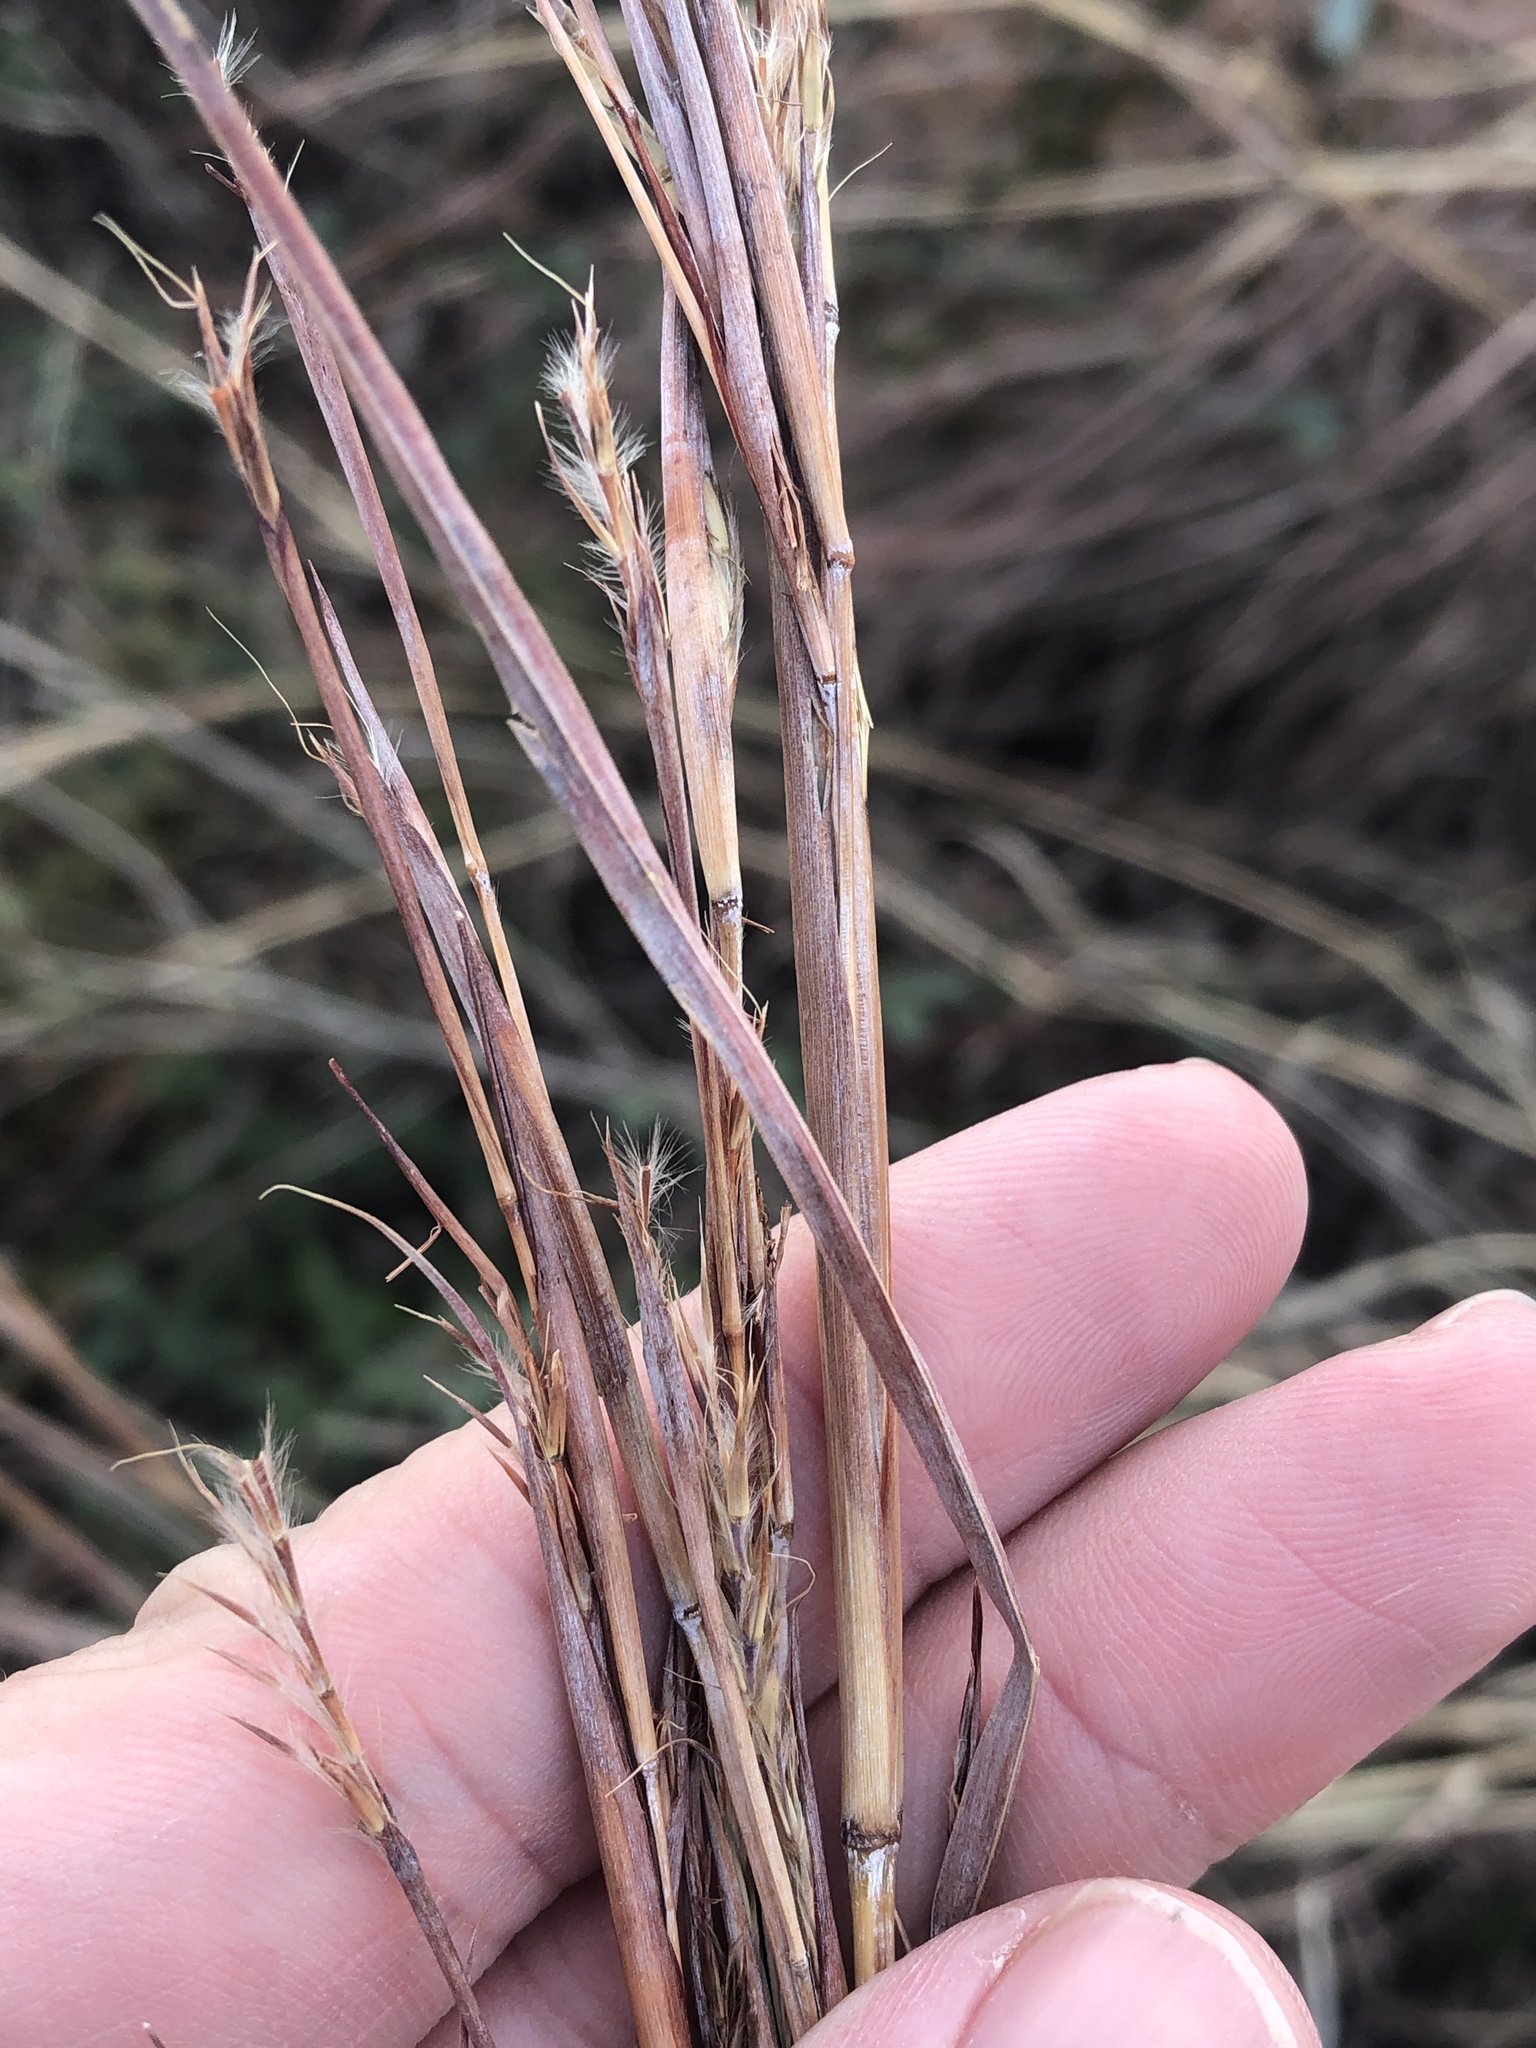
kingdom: Plantae
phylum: Tracheophyta
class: Liliopsida
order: Poales
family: Poaceae
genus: Schizachyrium
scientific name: Schizachyrium scoparium
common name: Little bluestem
